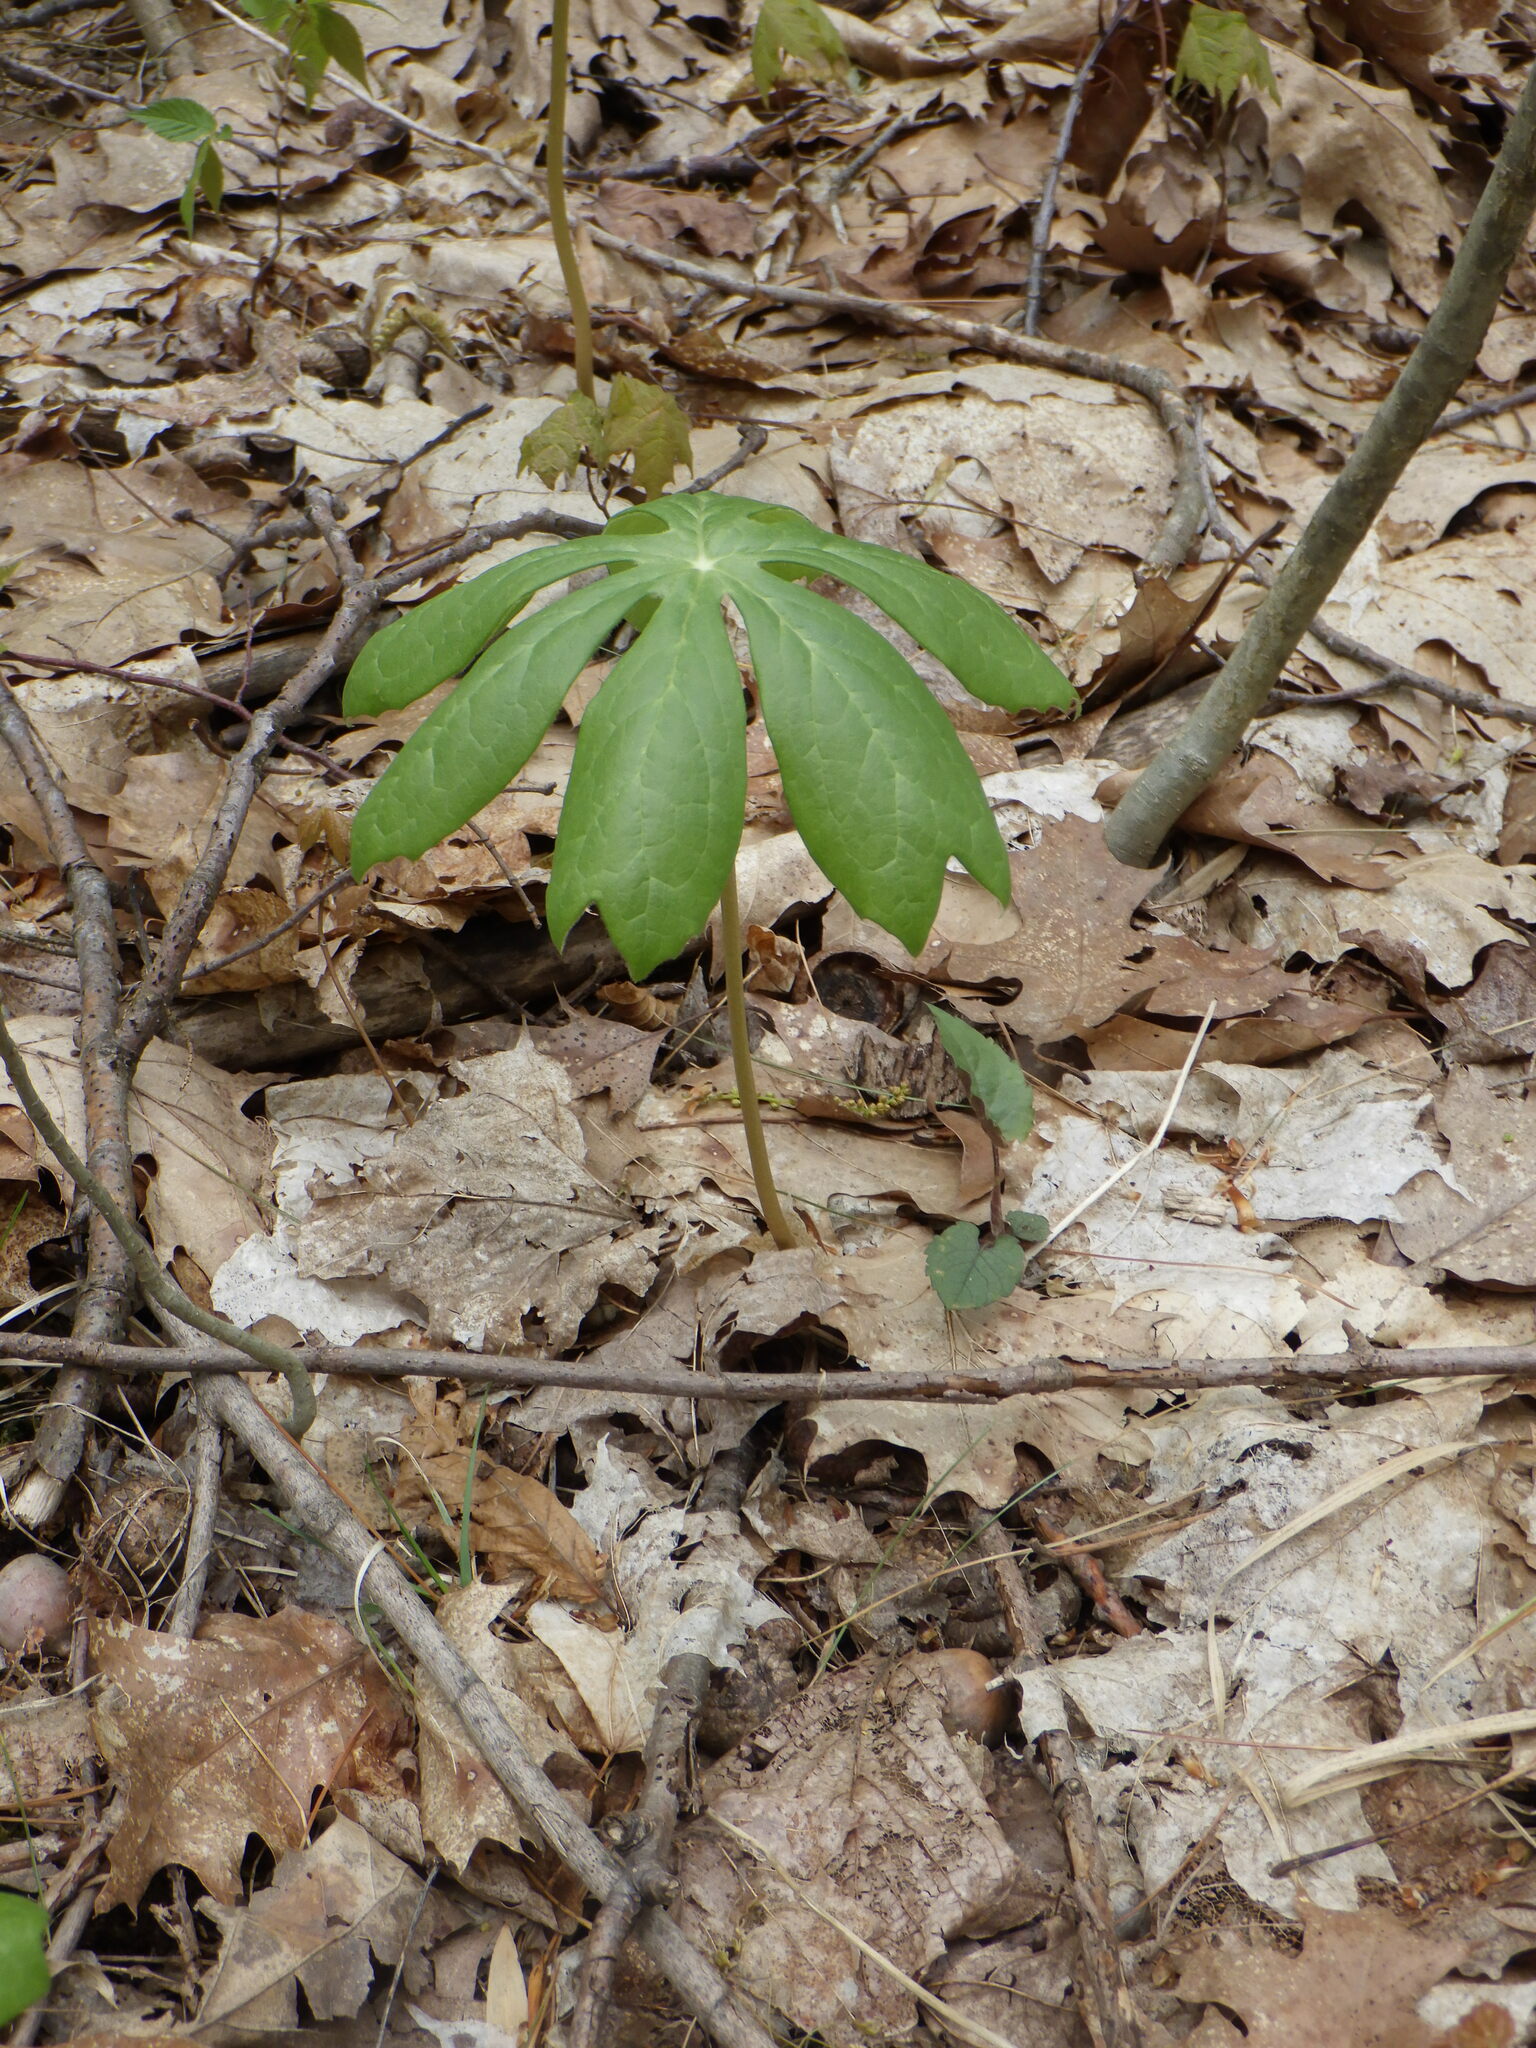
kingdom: Plantae
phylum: Tracheophyta
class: Magnoliopsida
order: Ranunculales
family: Berberidaceae
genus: Podophyllum
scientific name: Podophyllum peltatum
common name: Wild mandrake
